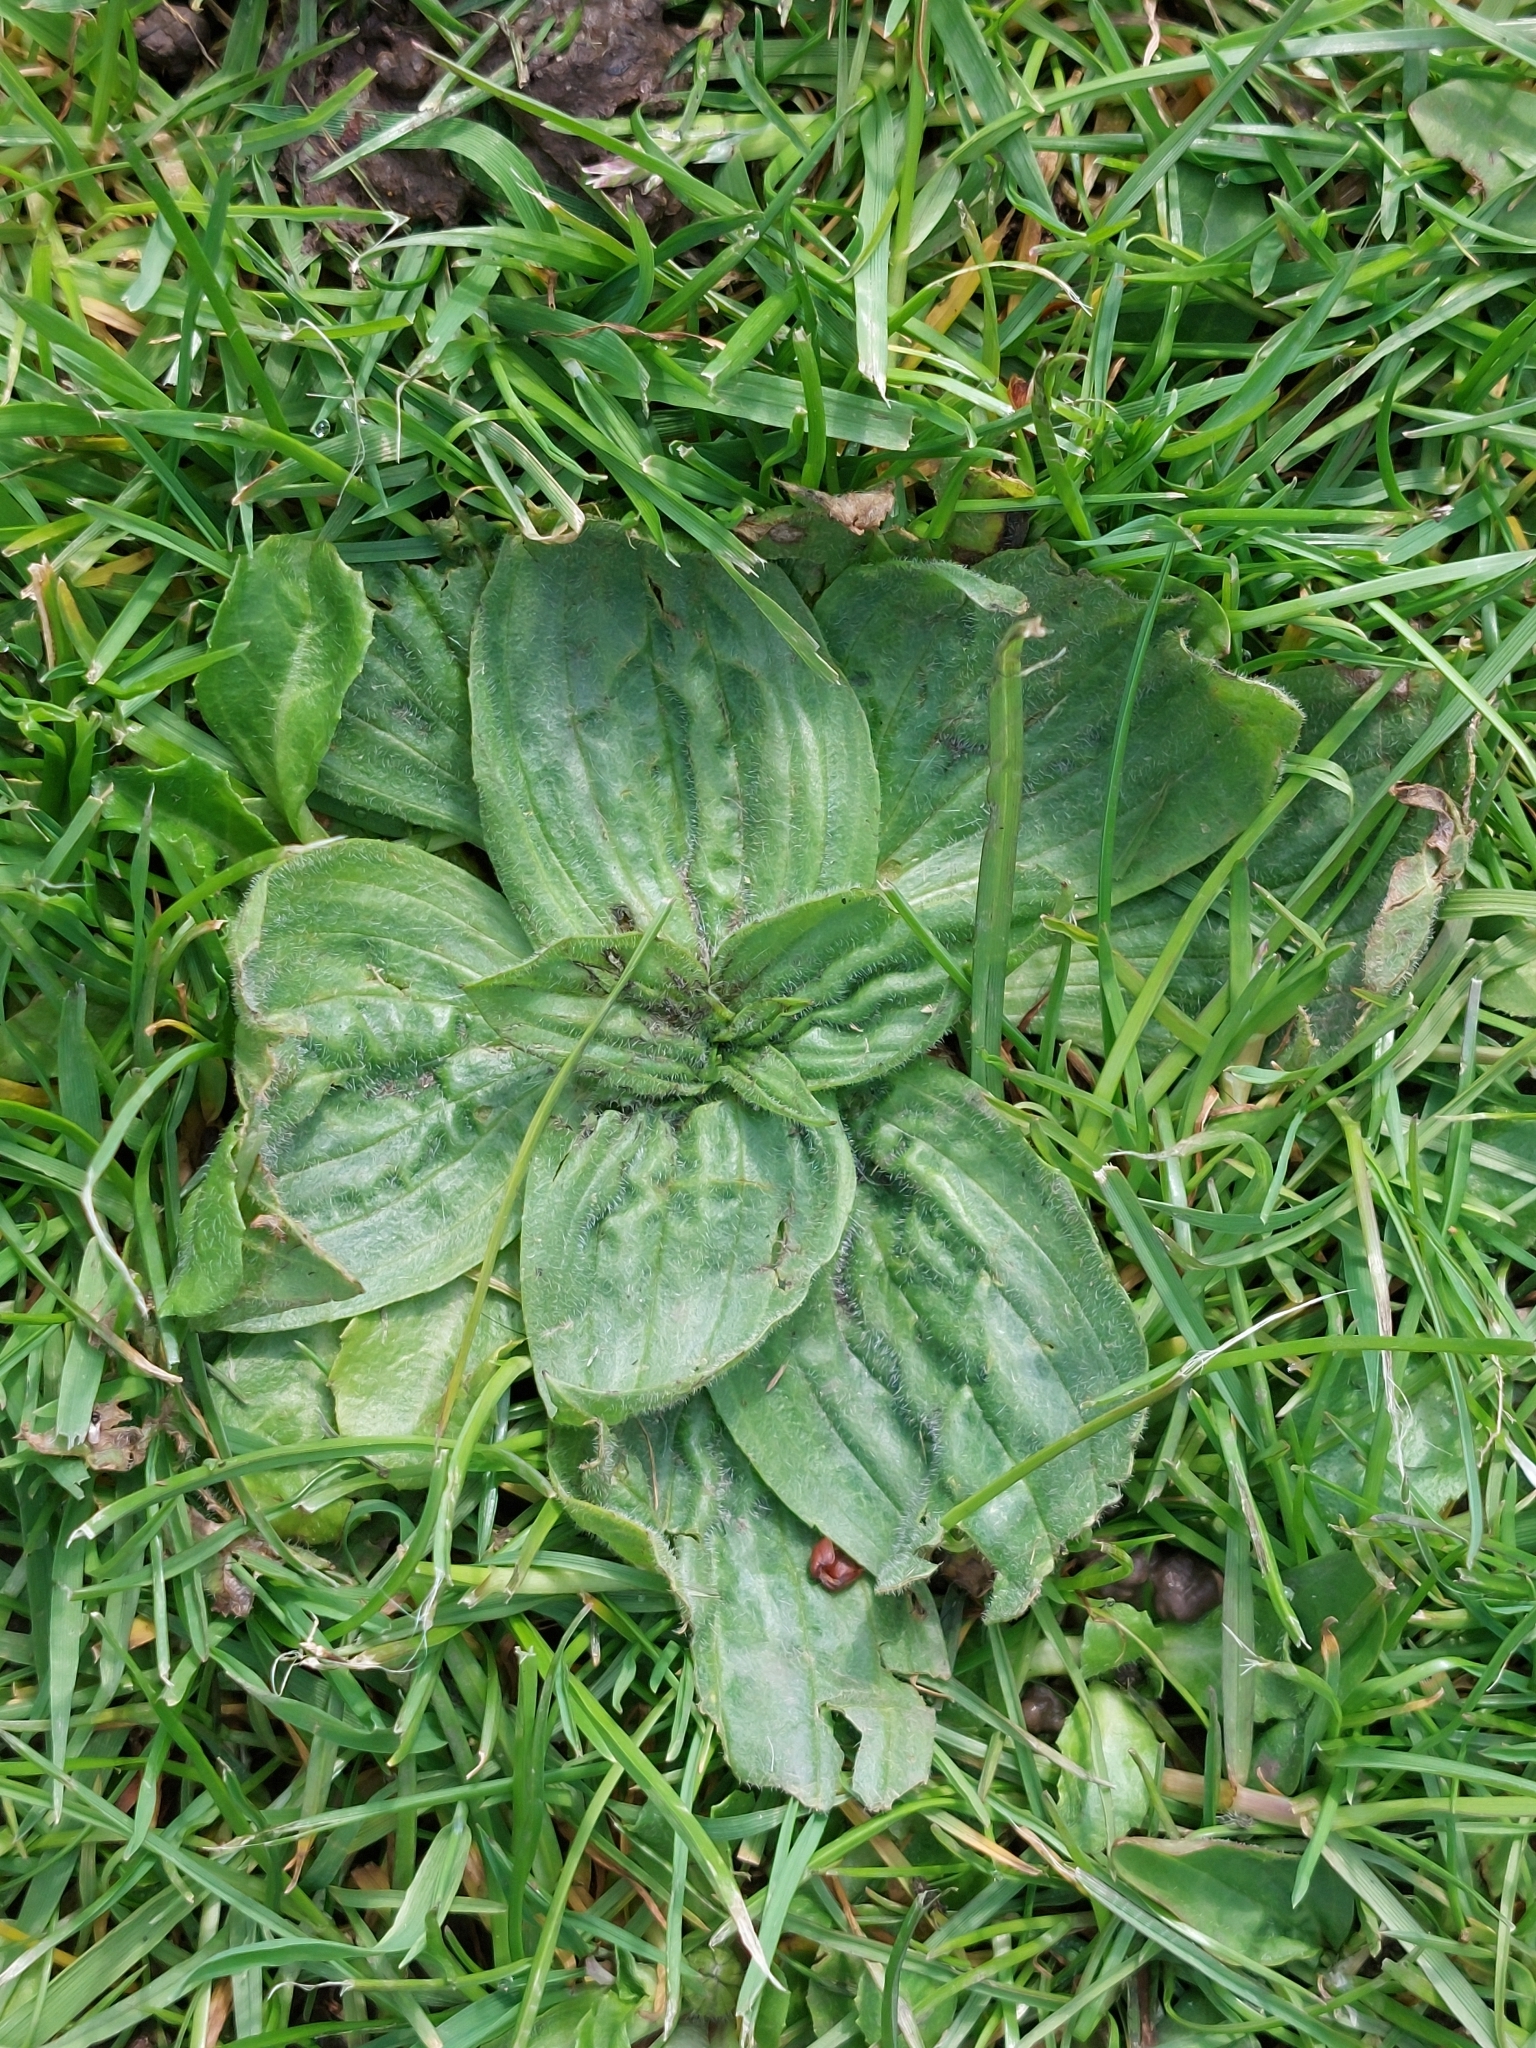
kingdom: Plantae
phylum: Tracheophyta
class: Magnoliopsida
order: Lamiales
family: Plantaginaceae
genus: Plantago
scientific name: Plantago major
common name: Common plantain
